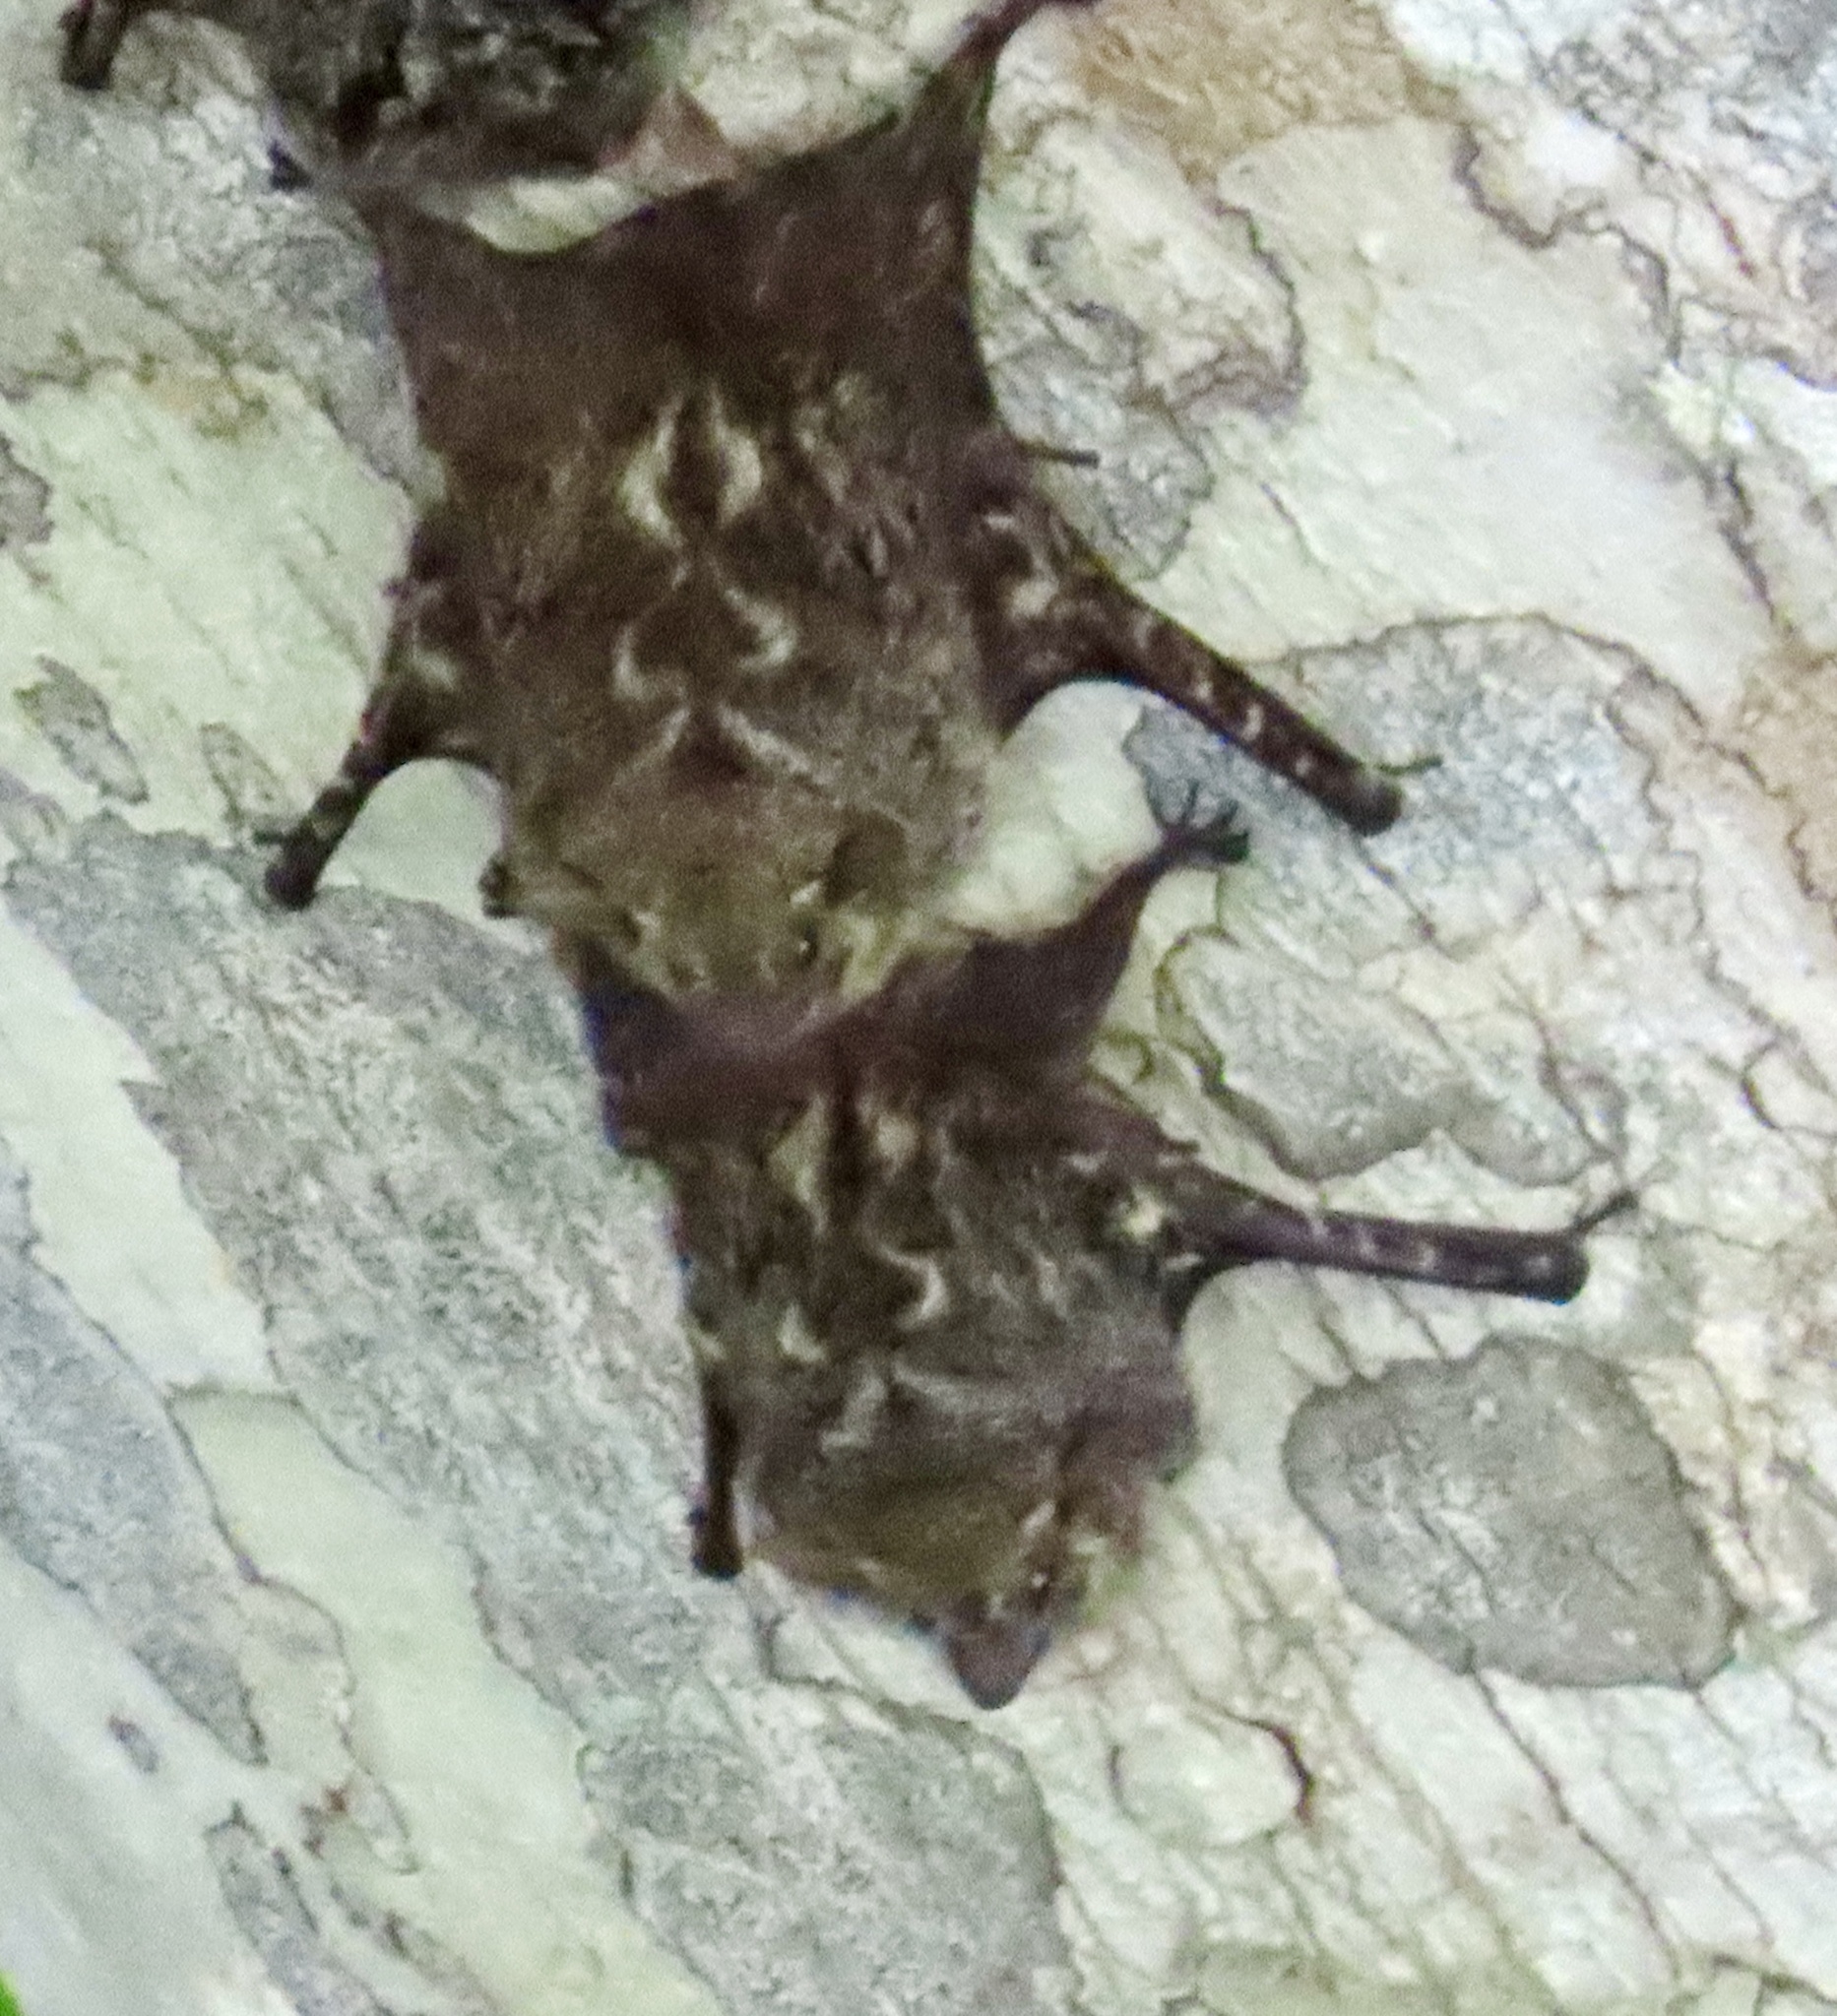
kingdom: Animalia
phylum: Chordata
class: Mammalia
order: Chiroptera
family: Emballonuridae
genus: Rhynchonycteris
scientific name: Rhynchonycteris naso
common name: Proboscis bat
